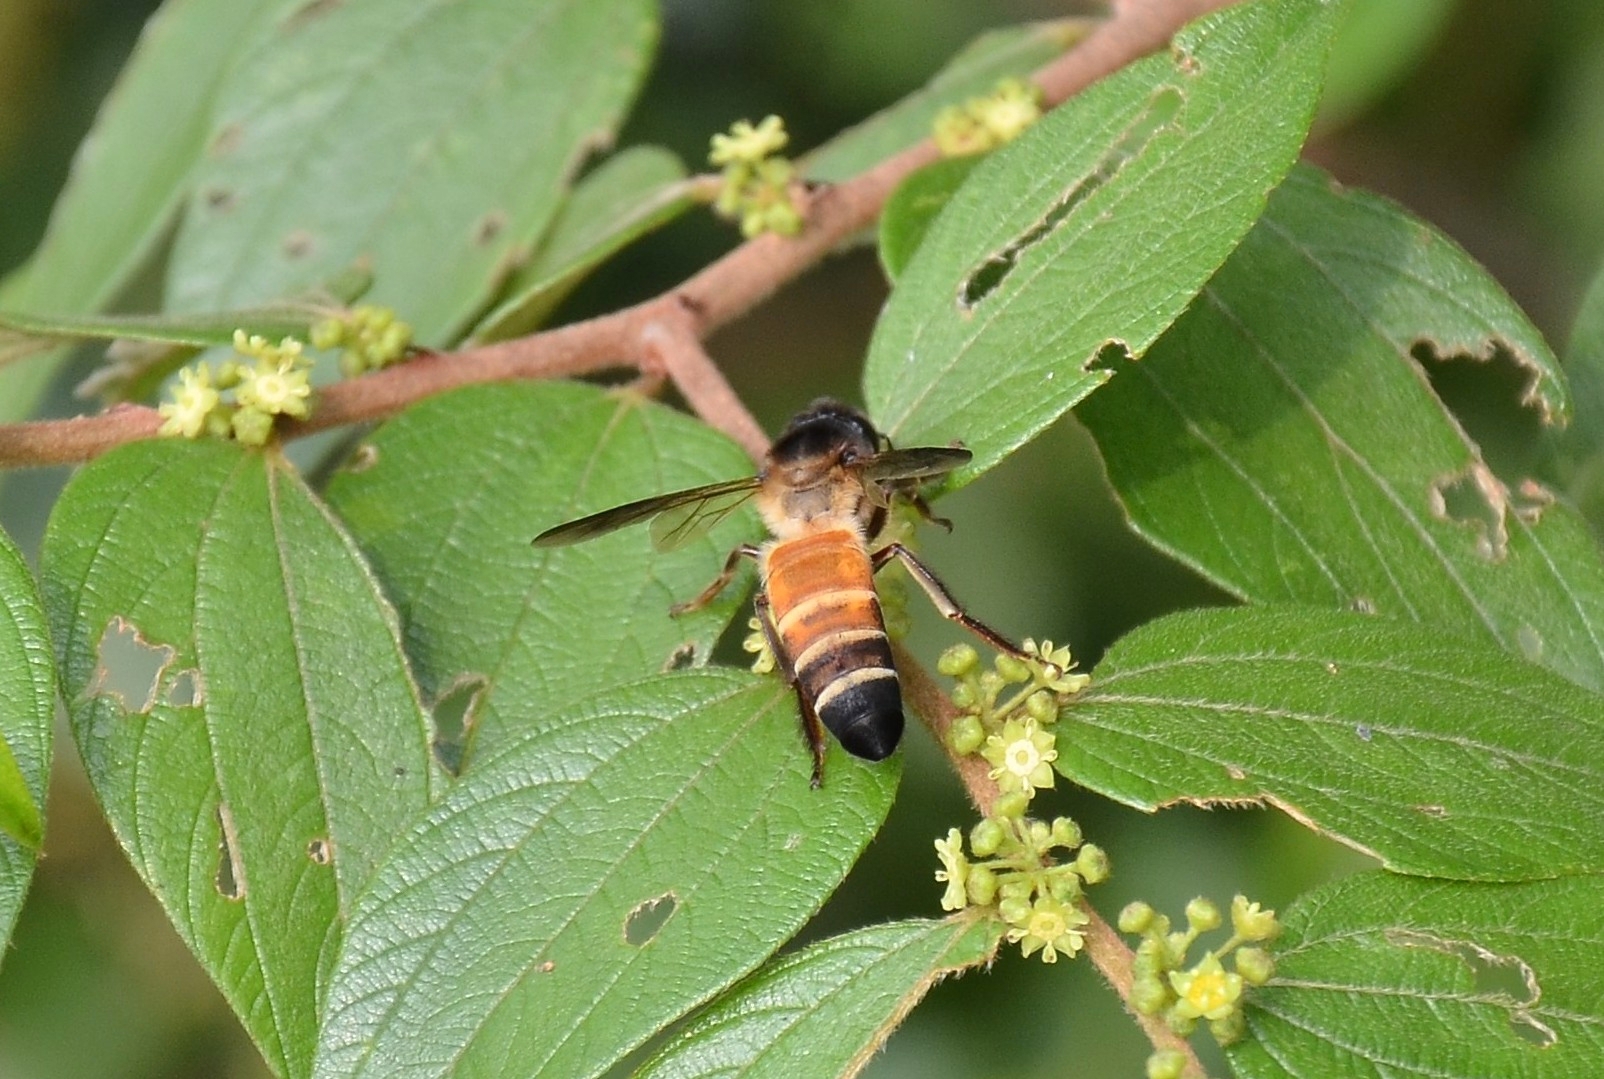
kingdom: Animalia
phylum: Arthropoda
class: Insecta
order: Hymenoptera
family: Apidae
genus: Apis
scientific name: Apis dorsata
